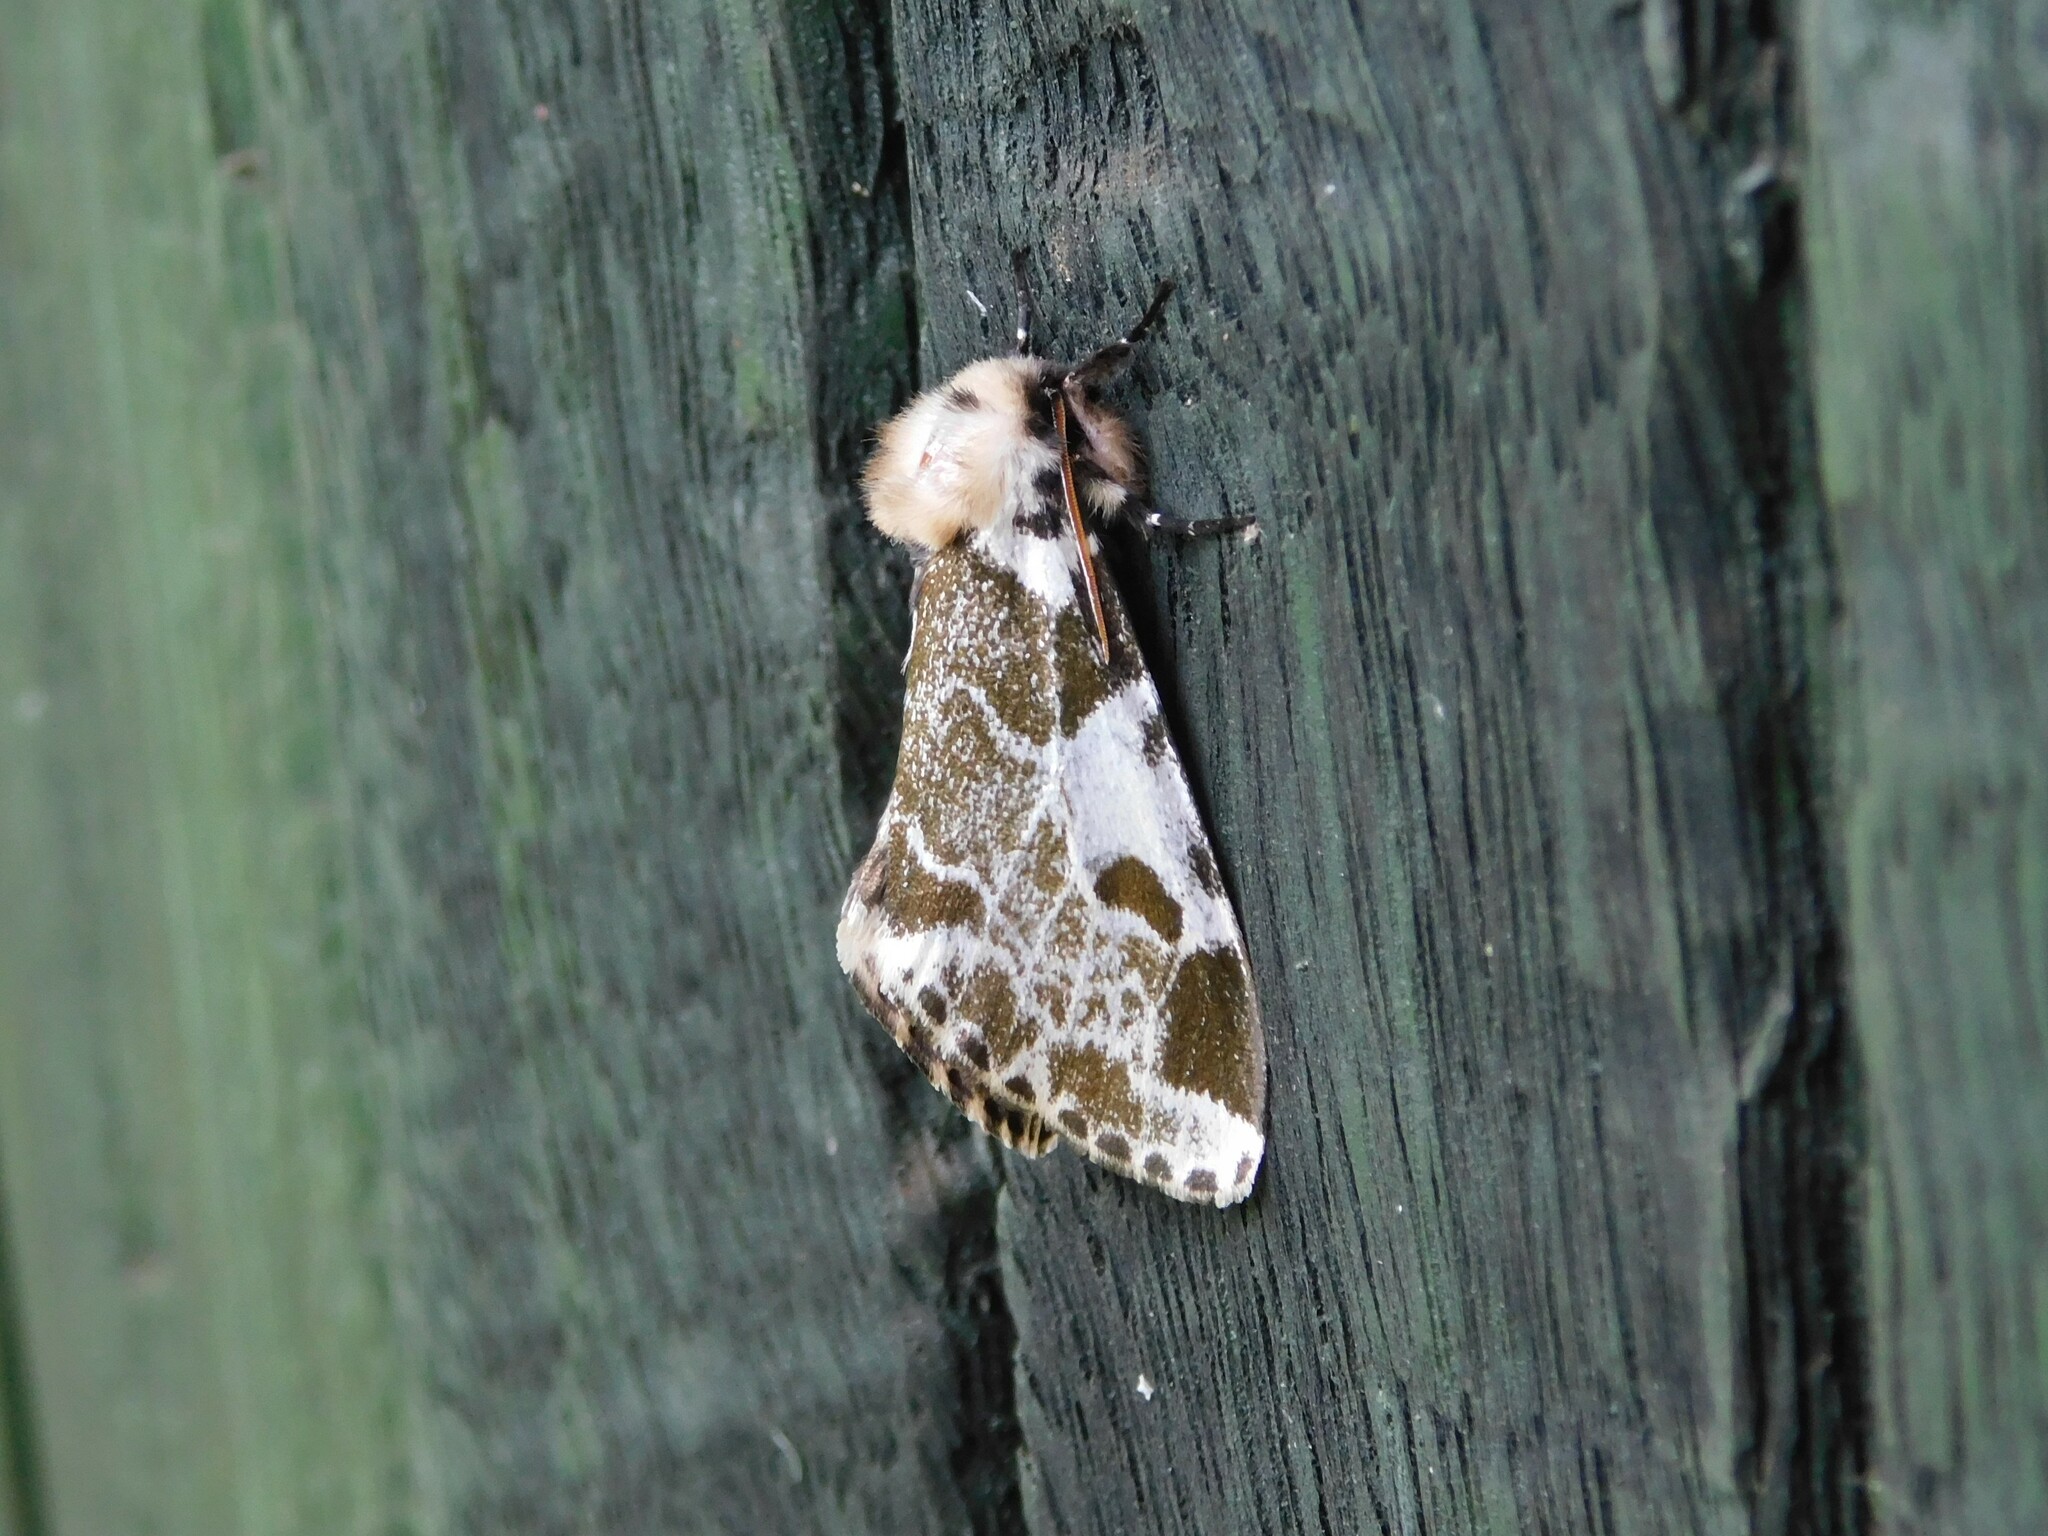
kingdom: Animalia
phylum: Arthropoda
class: Insecta
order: Lepidoptera
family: Erebidae
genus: Sciatta
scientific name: Sciatta inconcisa
